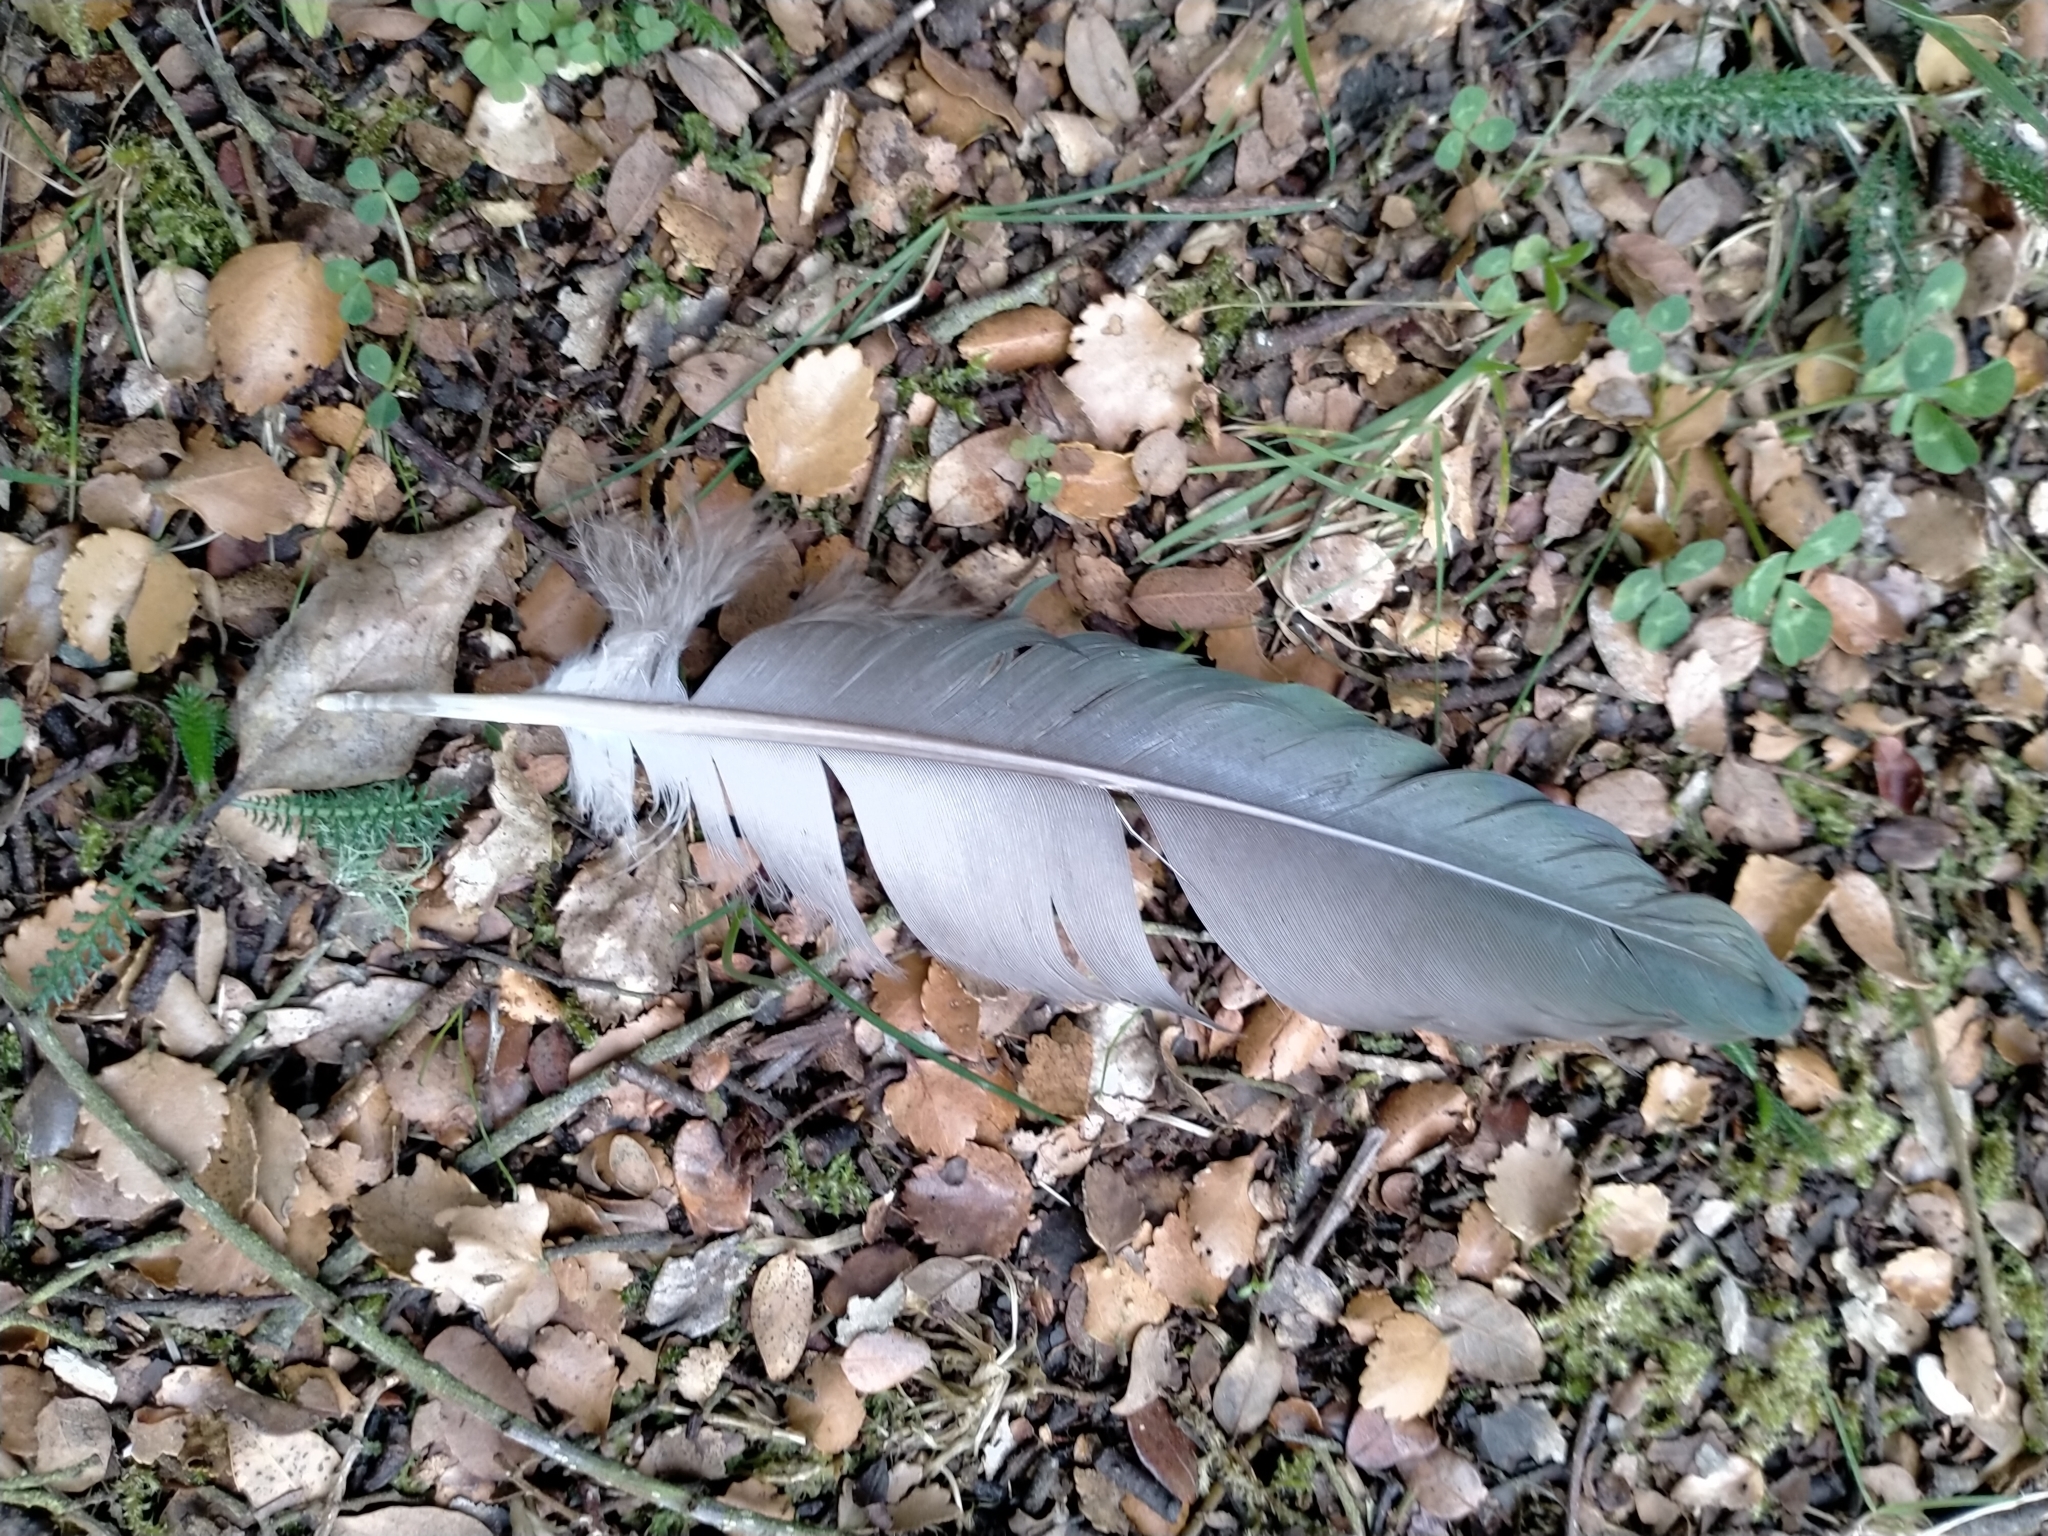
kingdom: Animalia
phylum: Chordata
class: Aves
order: Columbiformes
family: Columbidae
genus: Hemiphaga
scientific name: Hemiphaga novaeseelandiae
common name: New zealand pigeon
